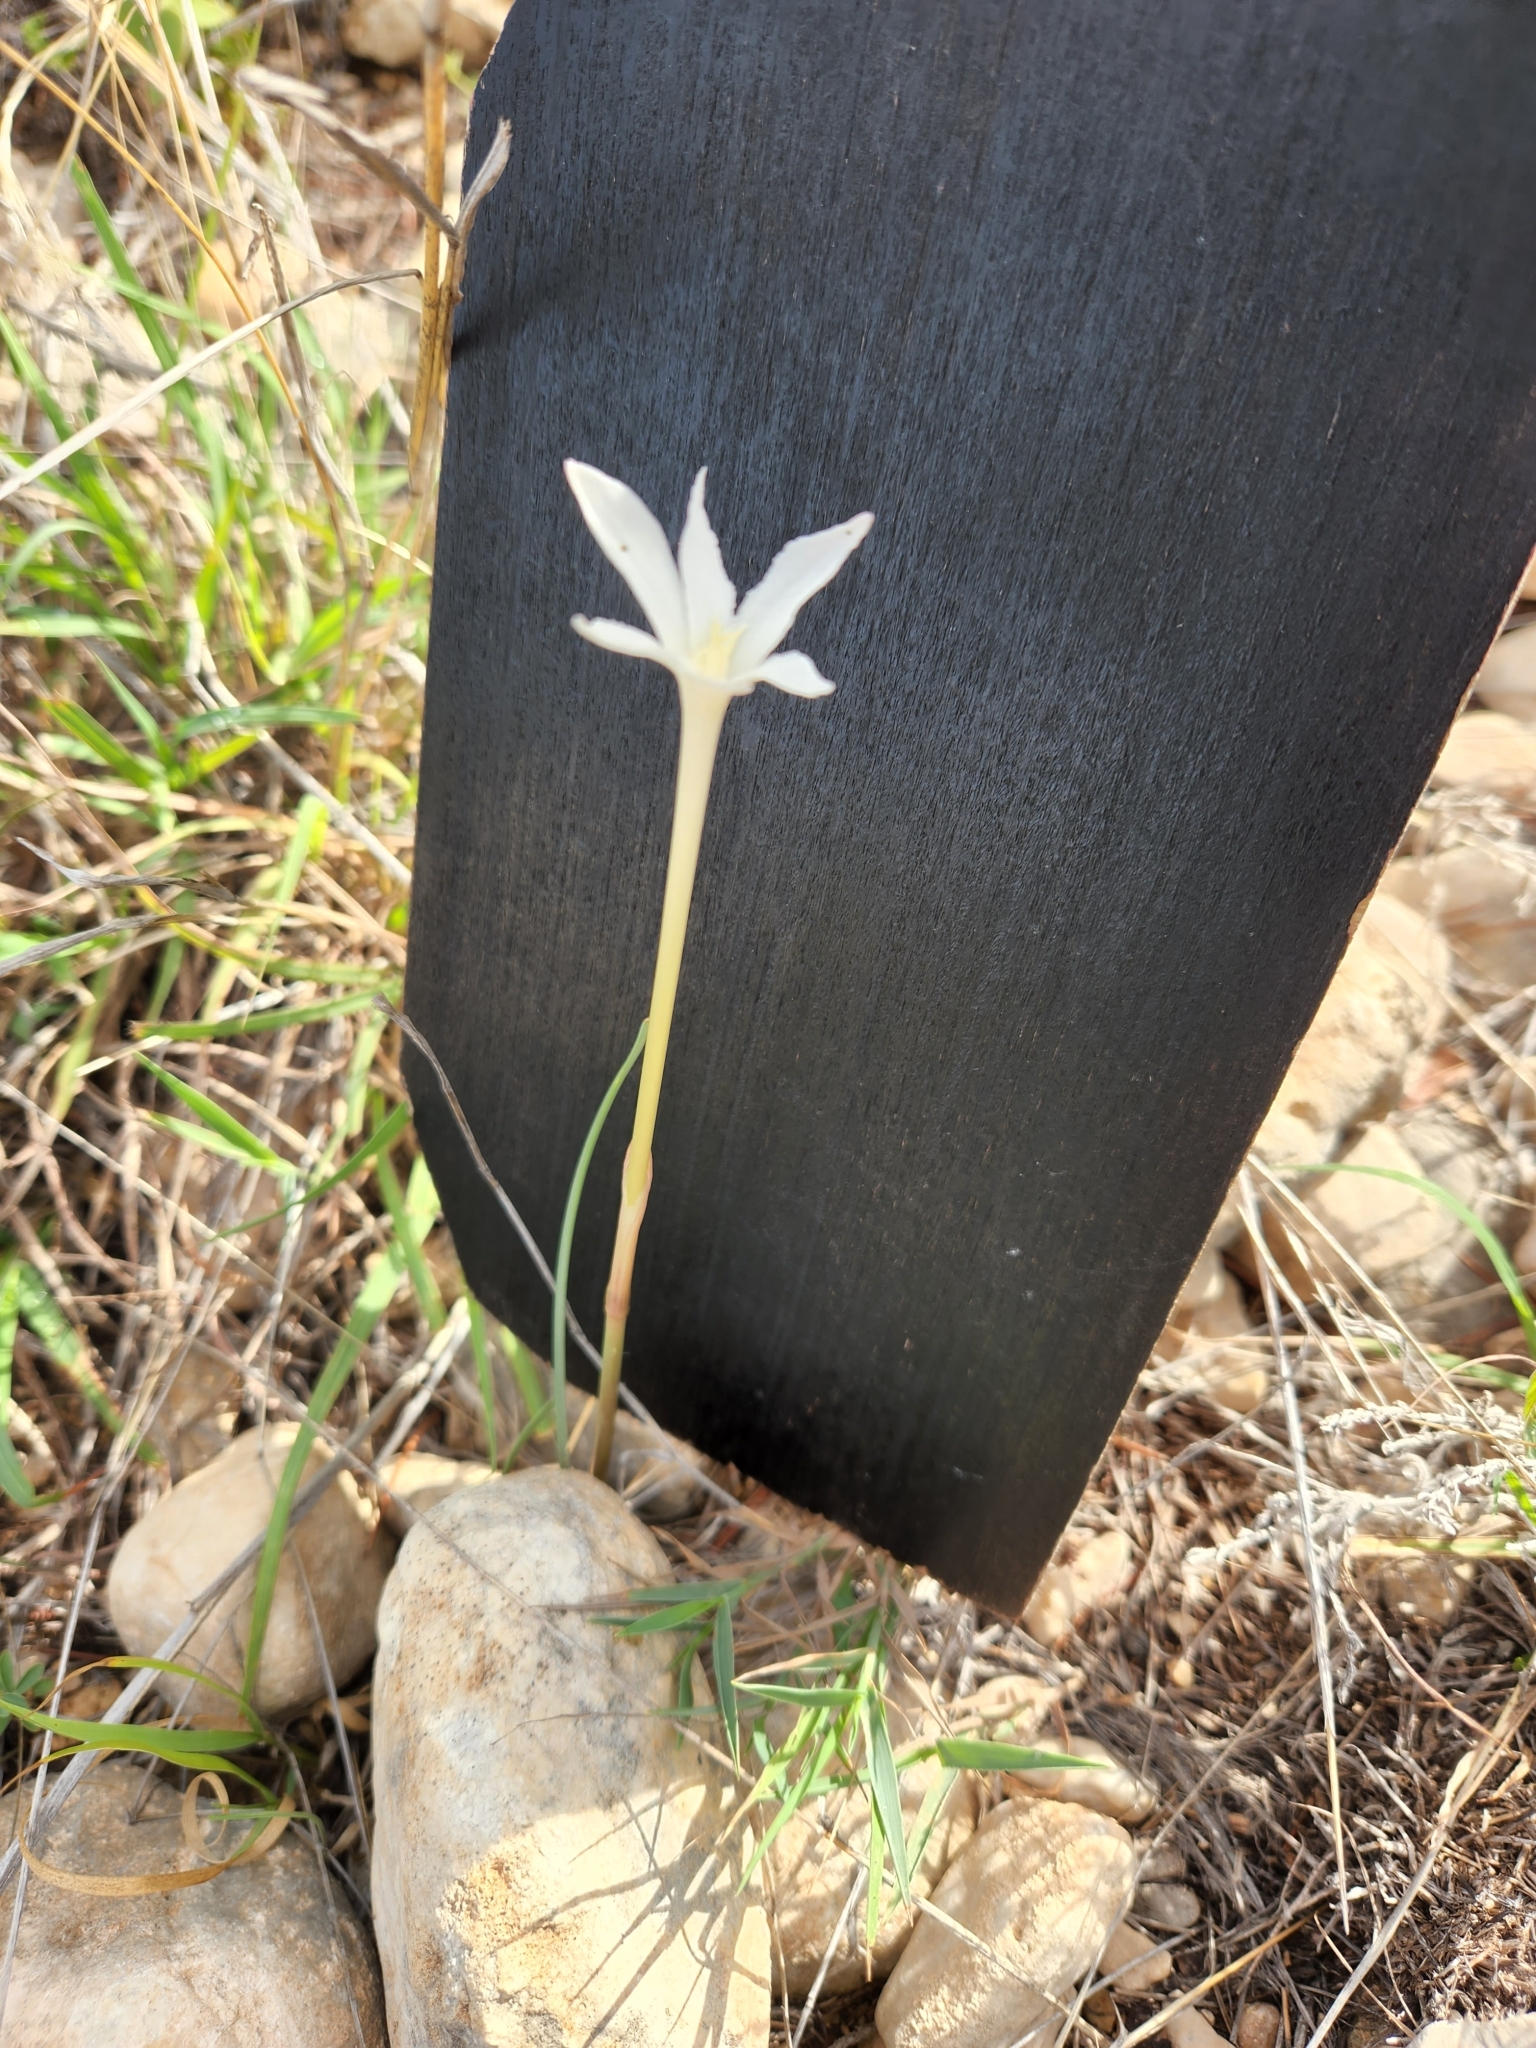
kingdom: Plantae
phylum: Tracheophyta
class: Liliopsida
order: Asparagales
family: Amaryllidaceae
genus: Zephyranthes
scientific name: Zephyranthes chlorosolen
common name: Evening rain-lily
